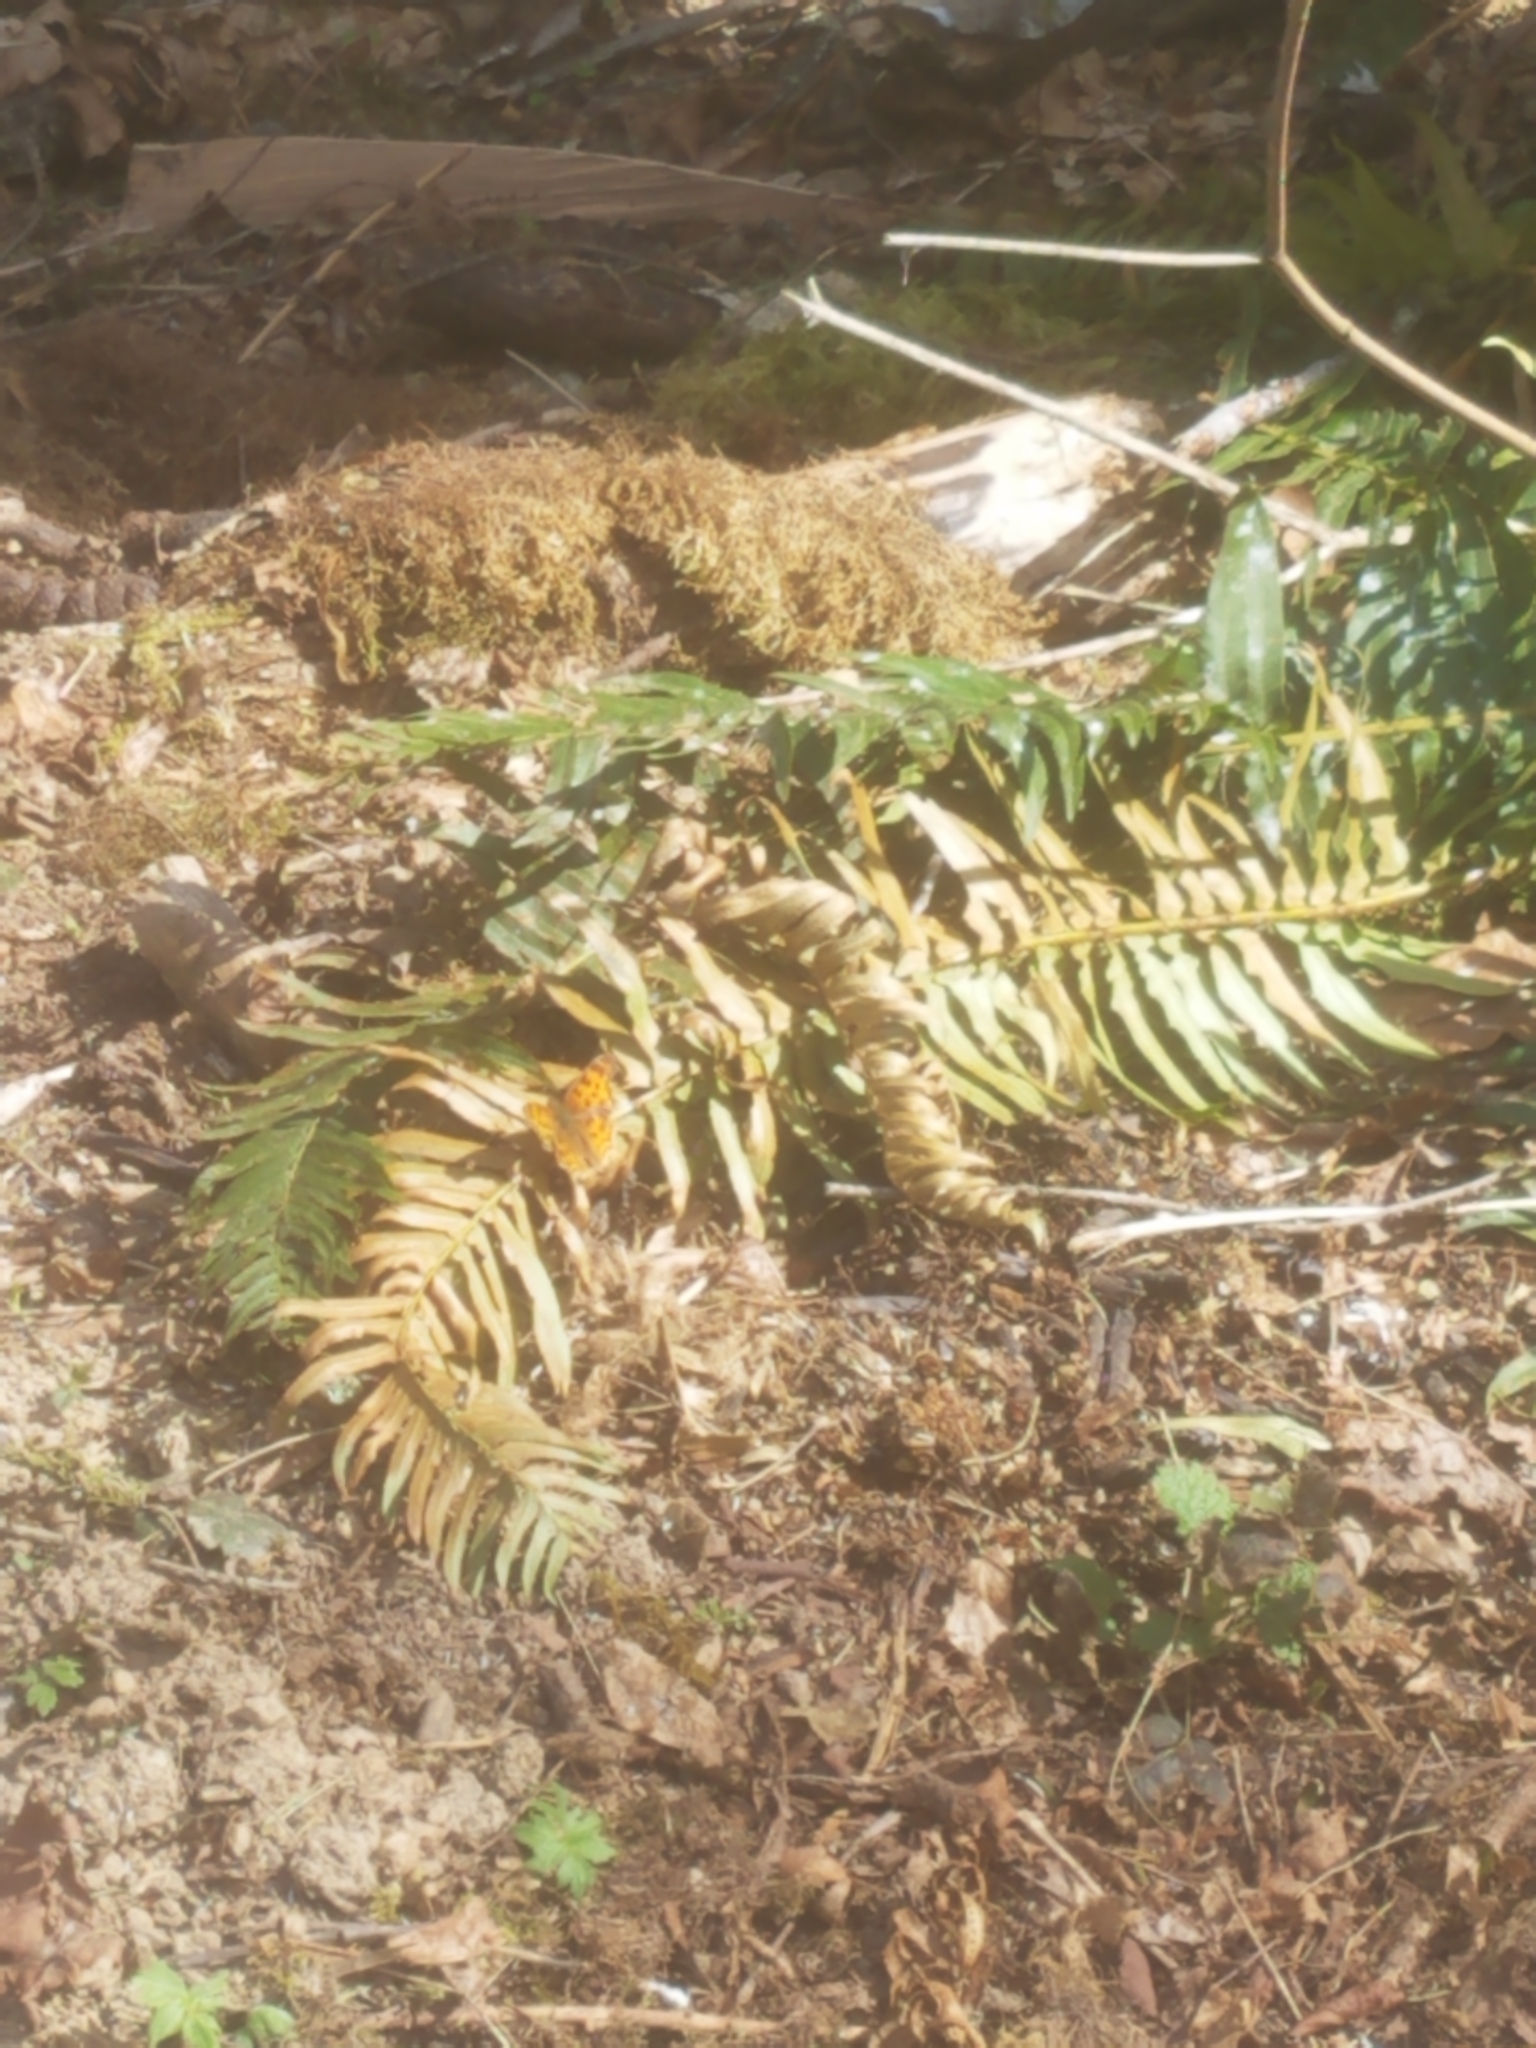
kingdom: Animalia
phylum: Arthropoda
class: Insecta
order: Lepidoptera
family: Nymphalidae
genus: Polygonia
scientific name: Polygonia satyrus
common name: Satyr angle wing
